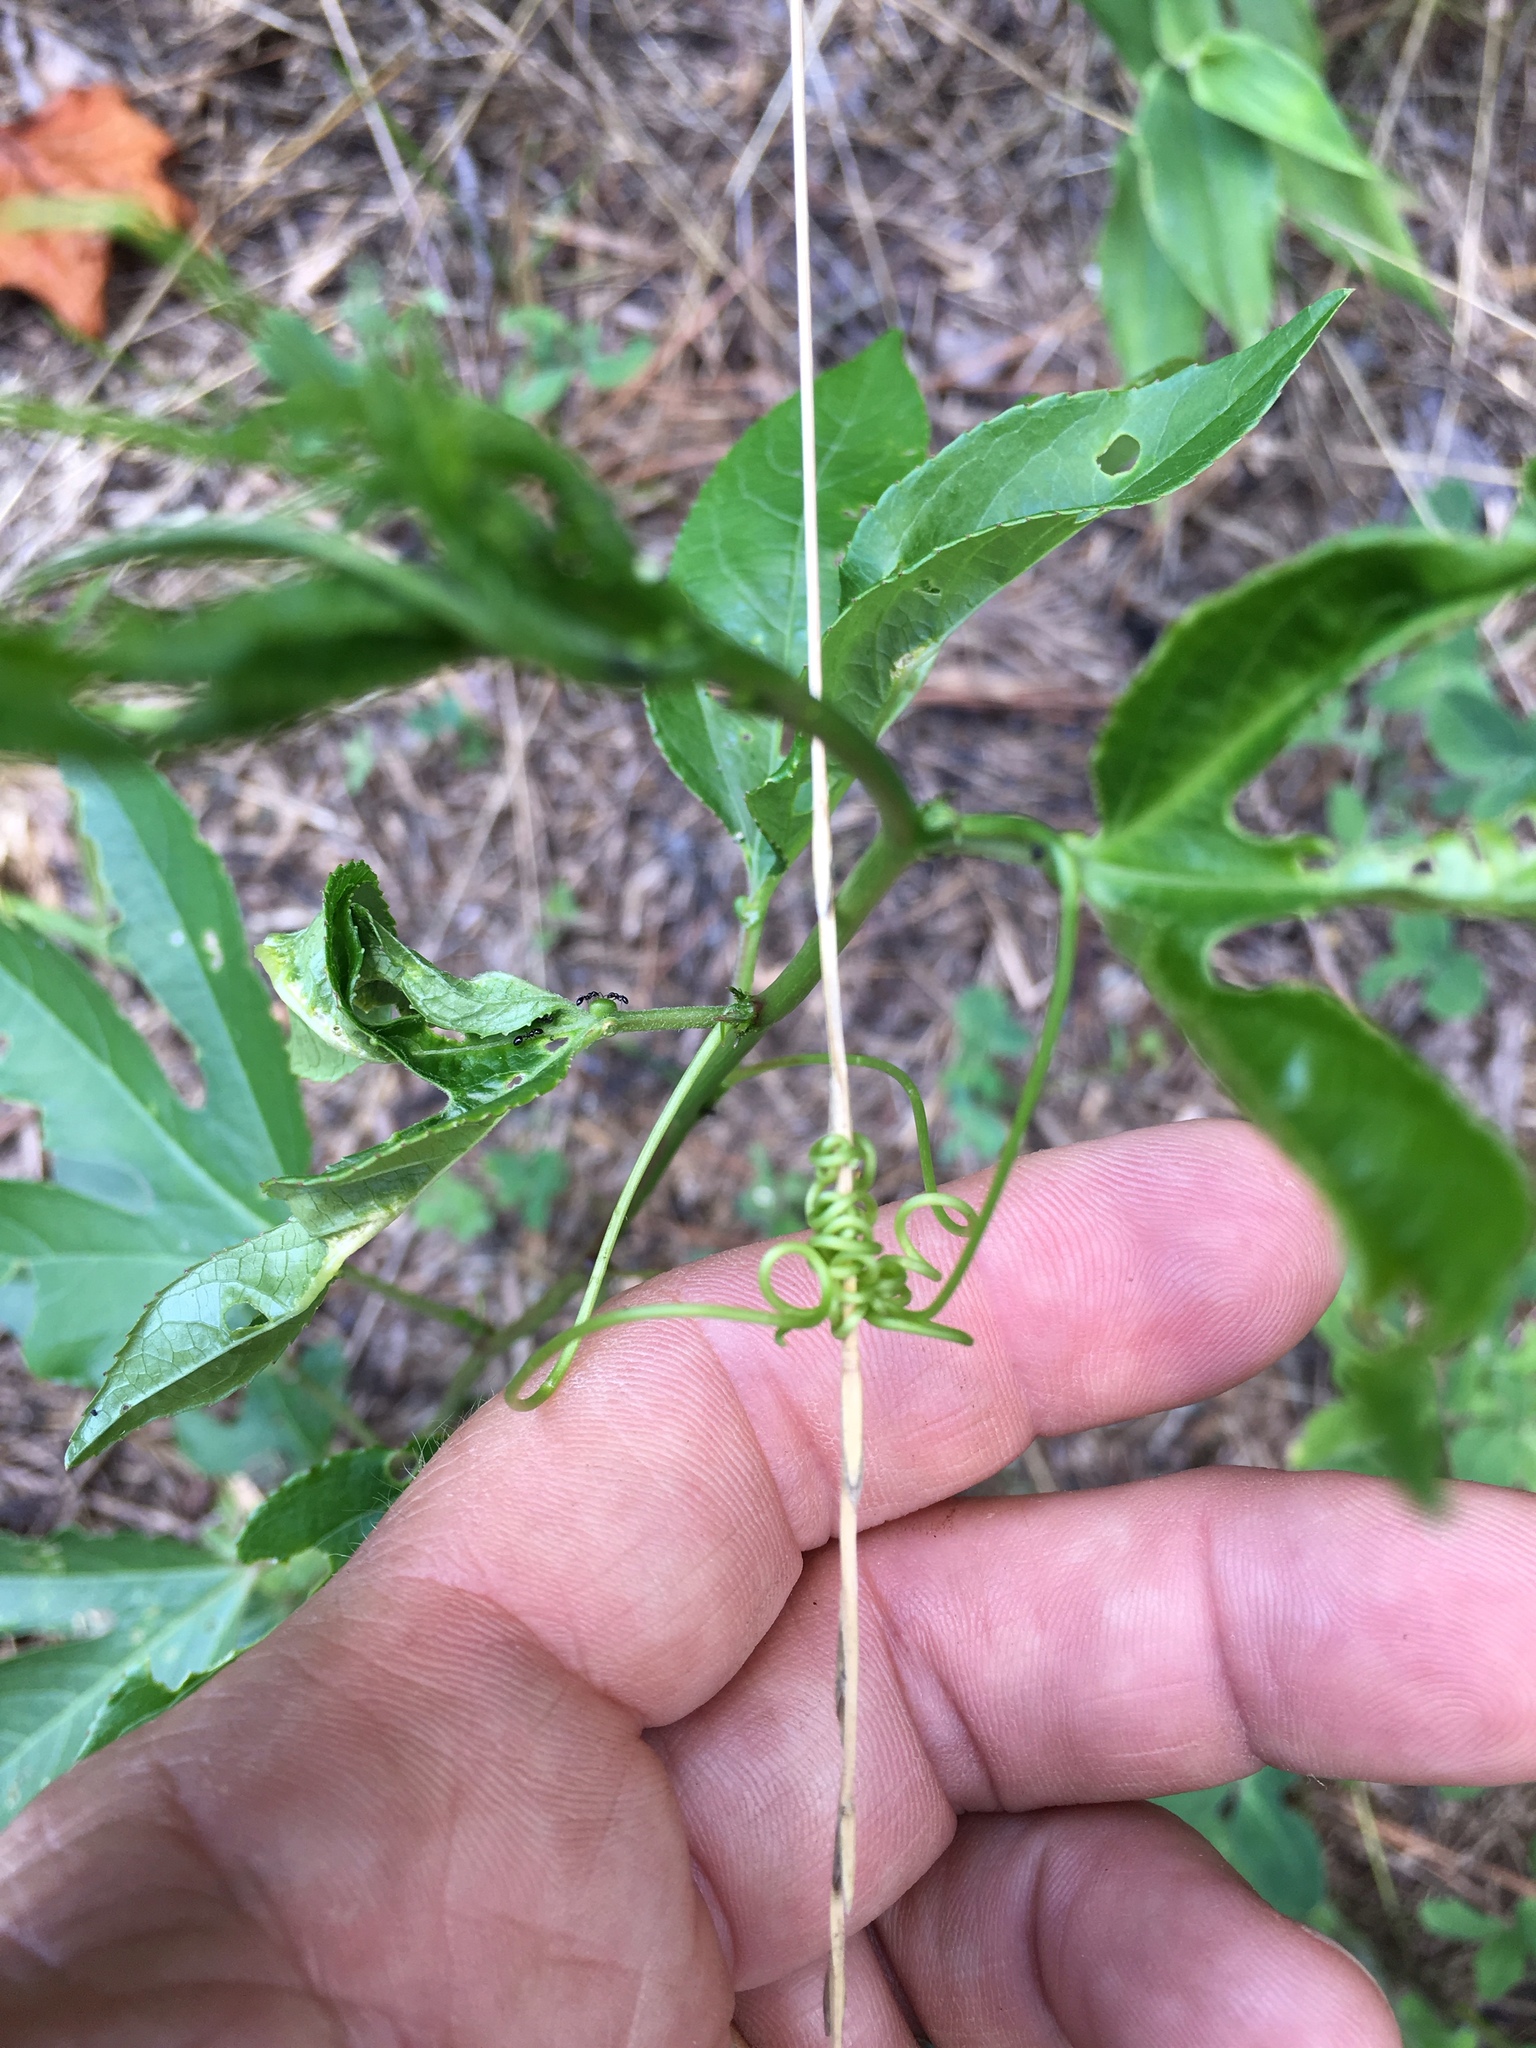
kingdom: Plantae
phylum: Tracheophyta
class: Magnoliopsida
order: Malpighiales
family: Passifloraceae
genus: Passiflora
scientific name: Passiflora incarnata
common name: Apricot-vine
